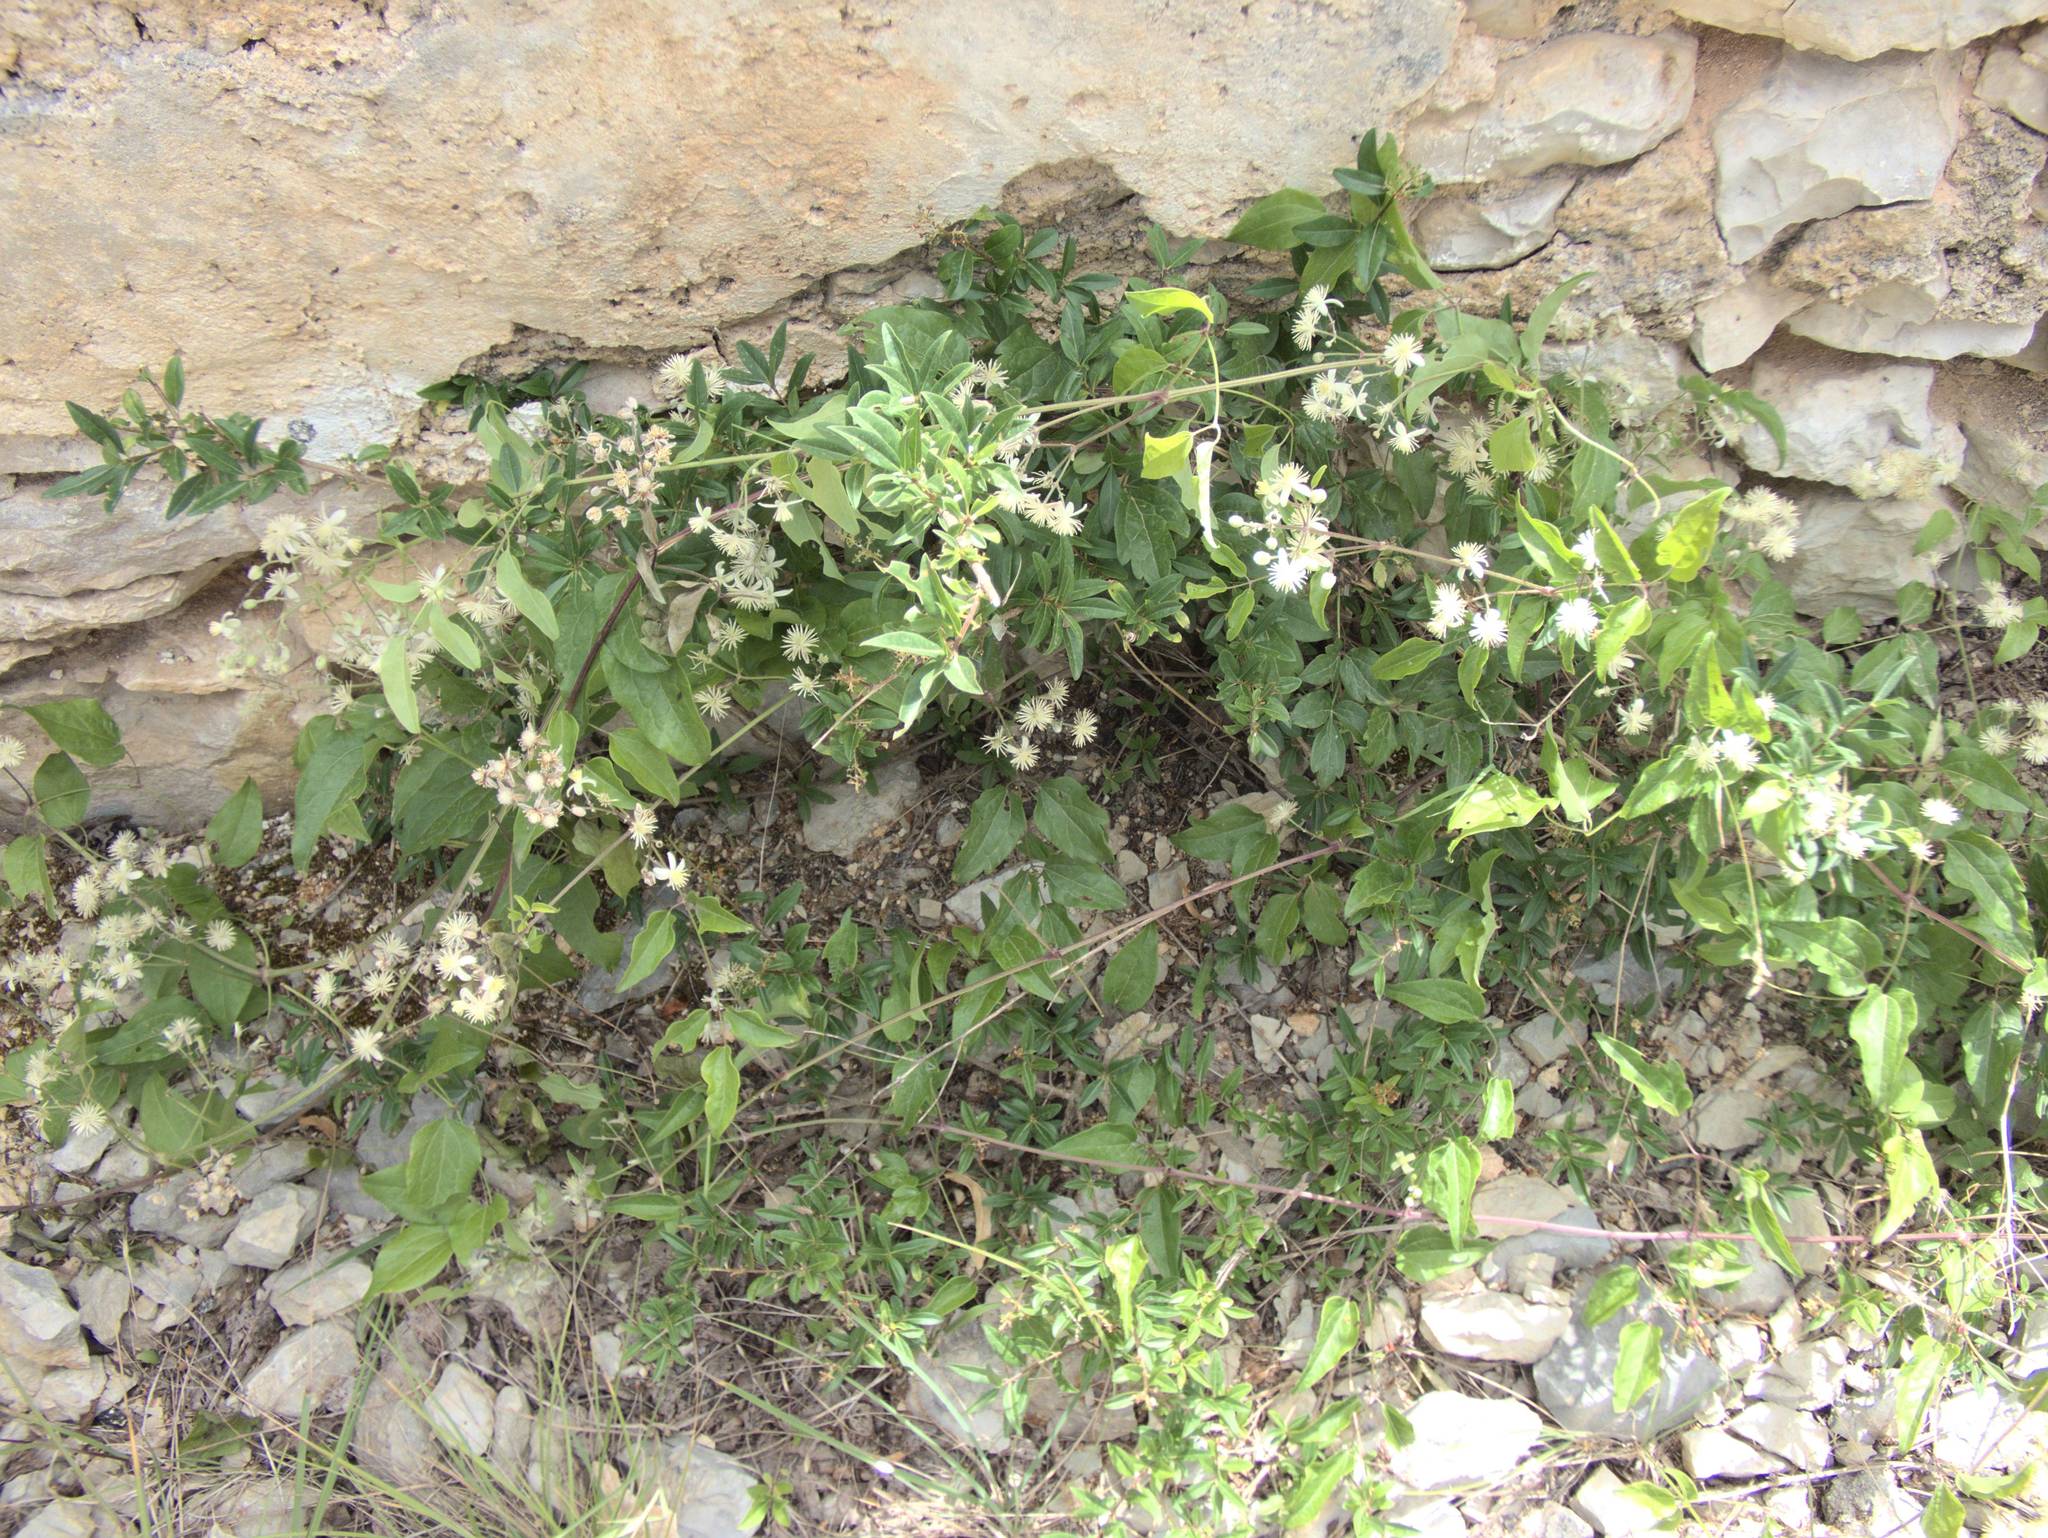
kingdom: Plantae
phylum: Tracheophyta
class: Magnoliopsida
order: Ranunculales
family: Ranunculaceae
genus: Clematis
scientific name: Clematis vitalba
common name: Evergreen clematis
